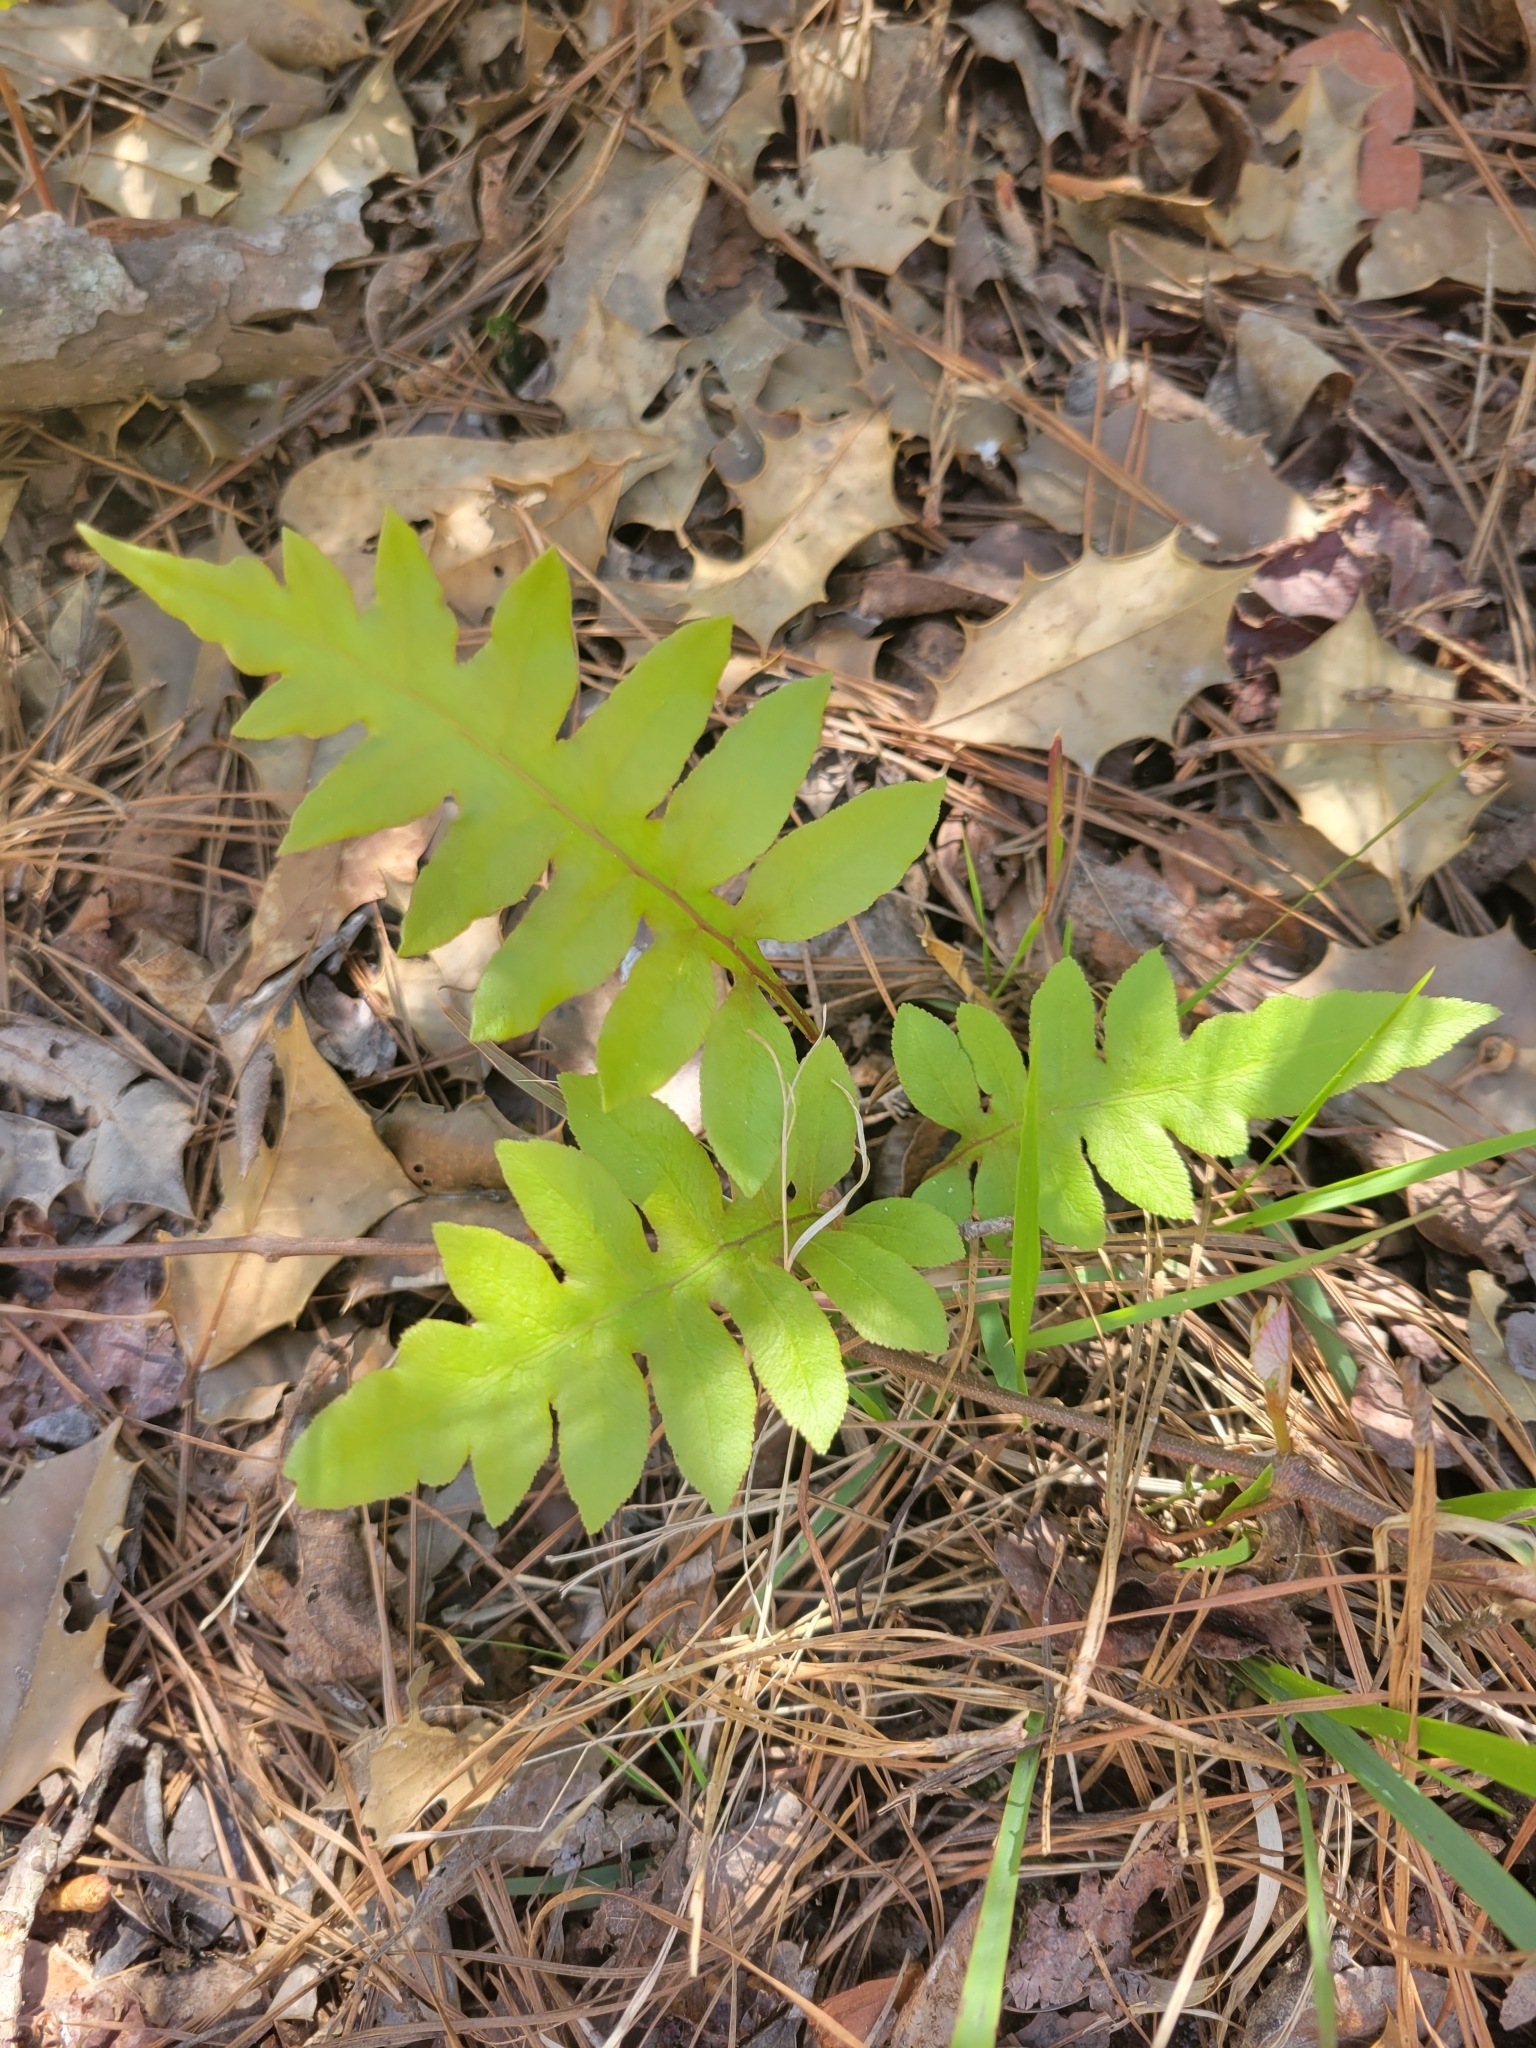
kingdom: Plantae
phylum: Tracheophyta
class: Polypodiopsida
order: Polypodiales
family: Blechnaceae
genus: Lorinseria
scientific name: Lorinseria areolata
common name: Dwarf chain fern
